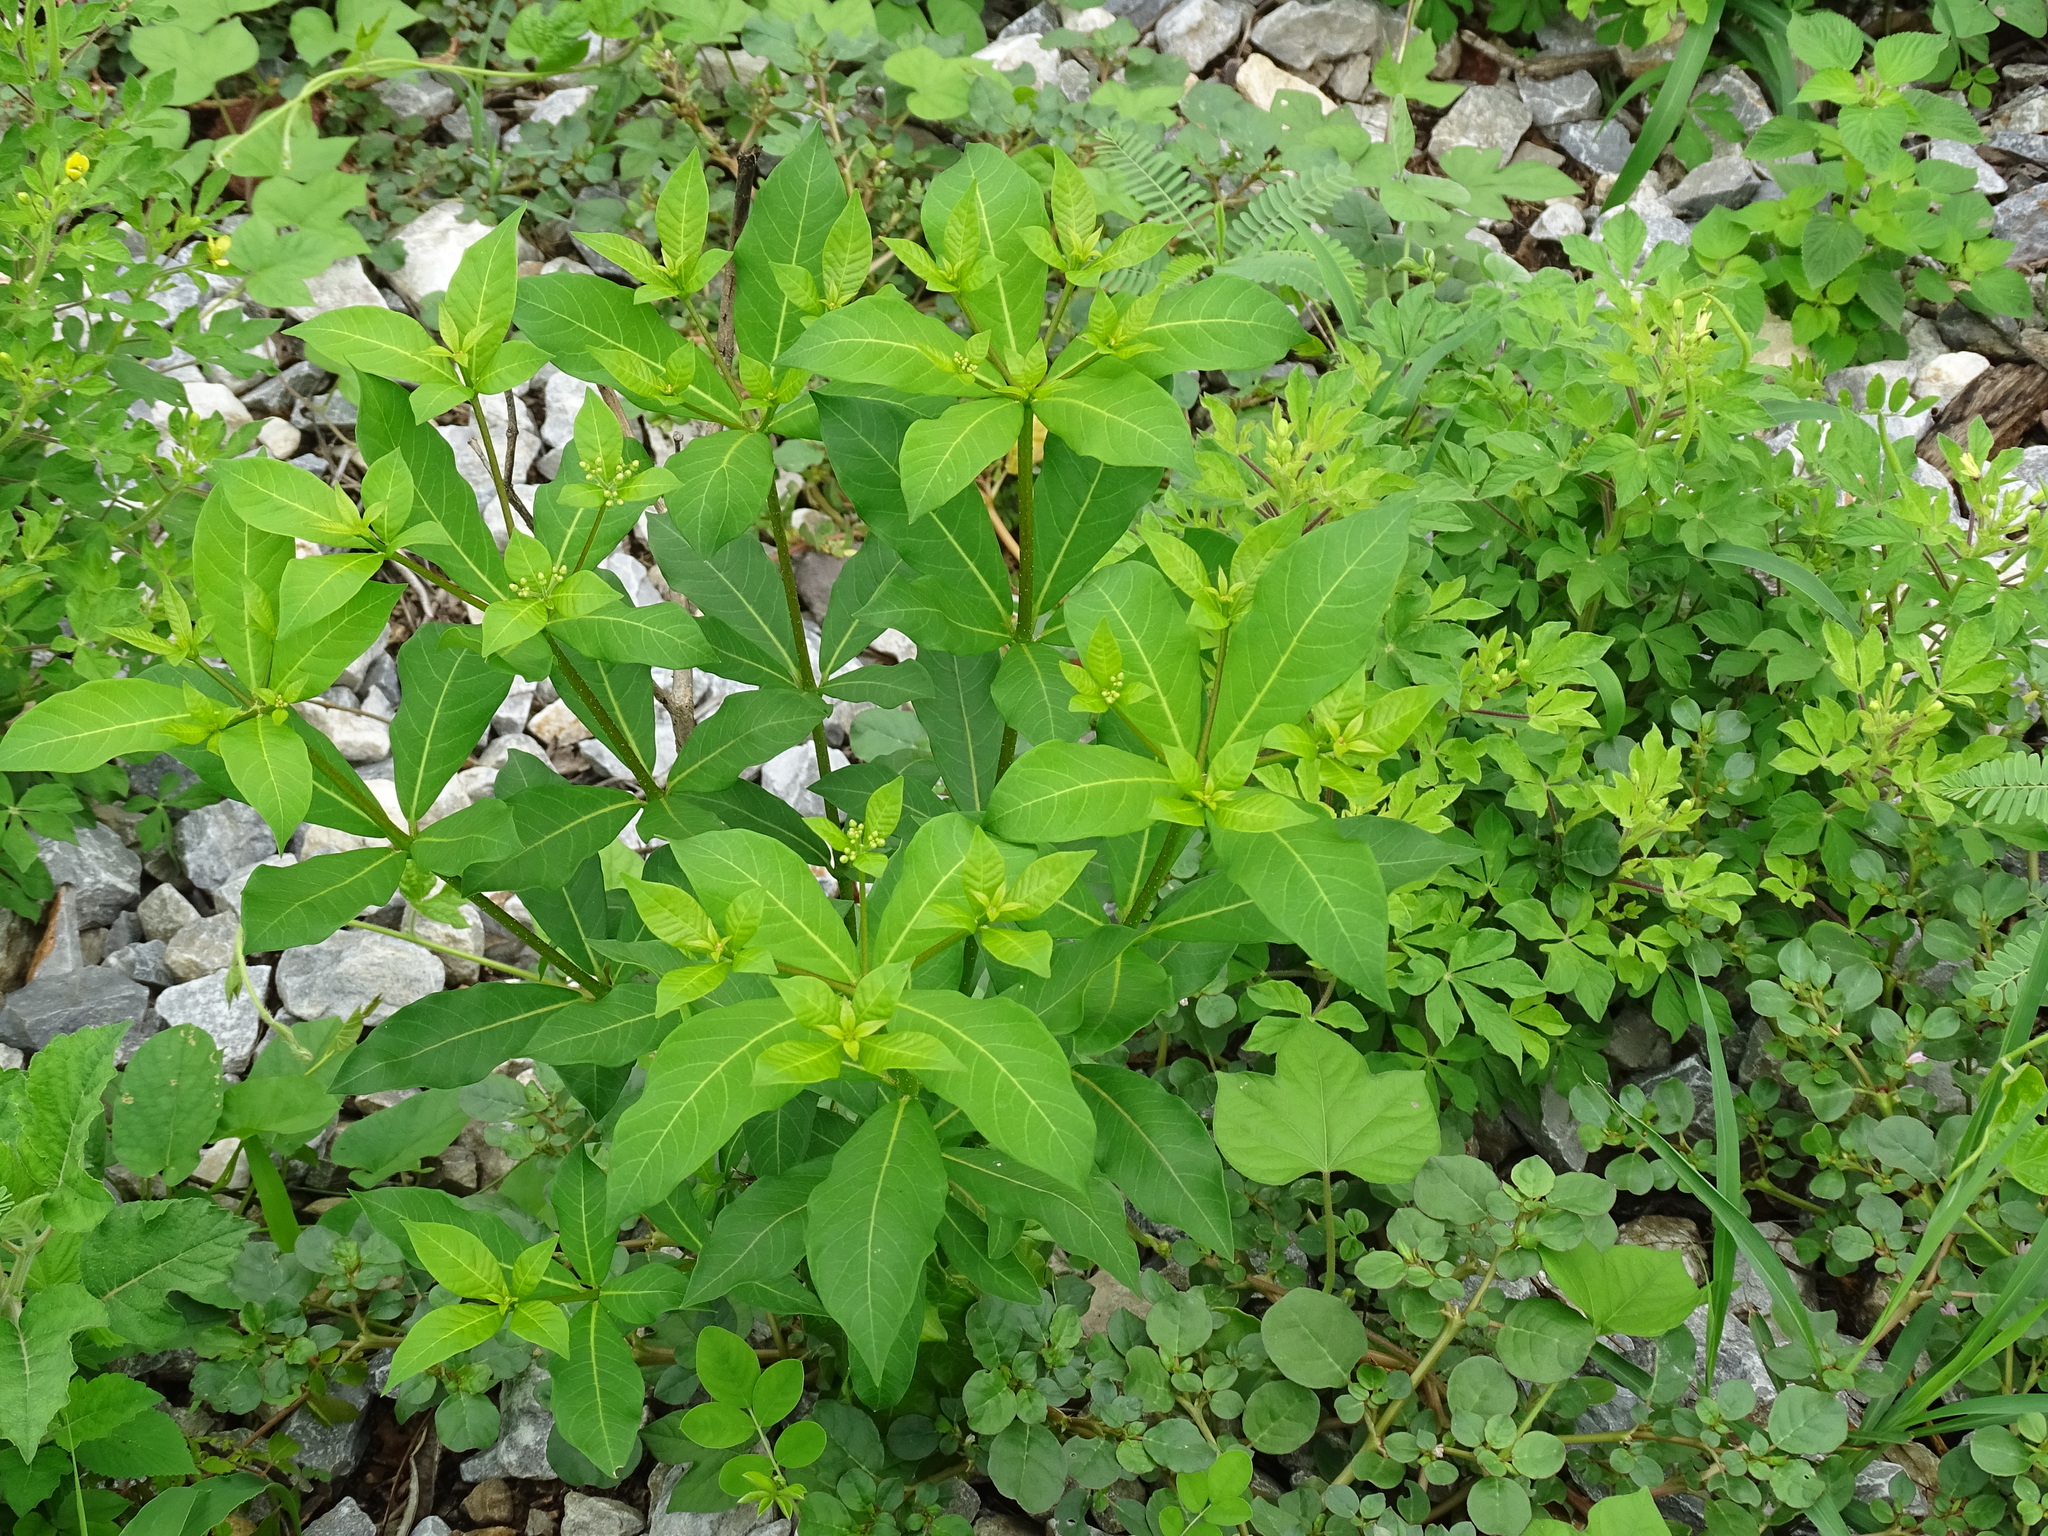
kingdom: Plantae
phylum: Tracheophyta
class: Magnoliopsida
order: Gentianales
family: Apocynaceae
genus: Rauvolfia
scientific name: Rauvolfia tetraphylla
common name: Four-leaf devil-pepper
